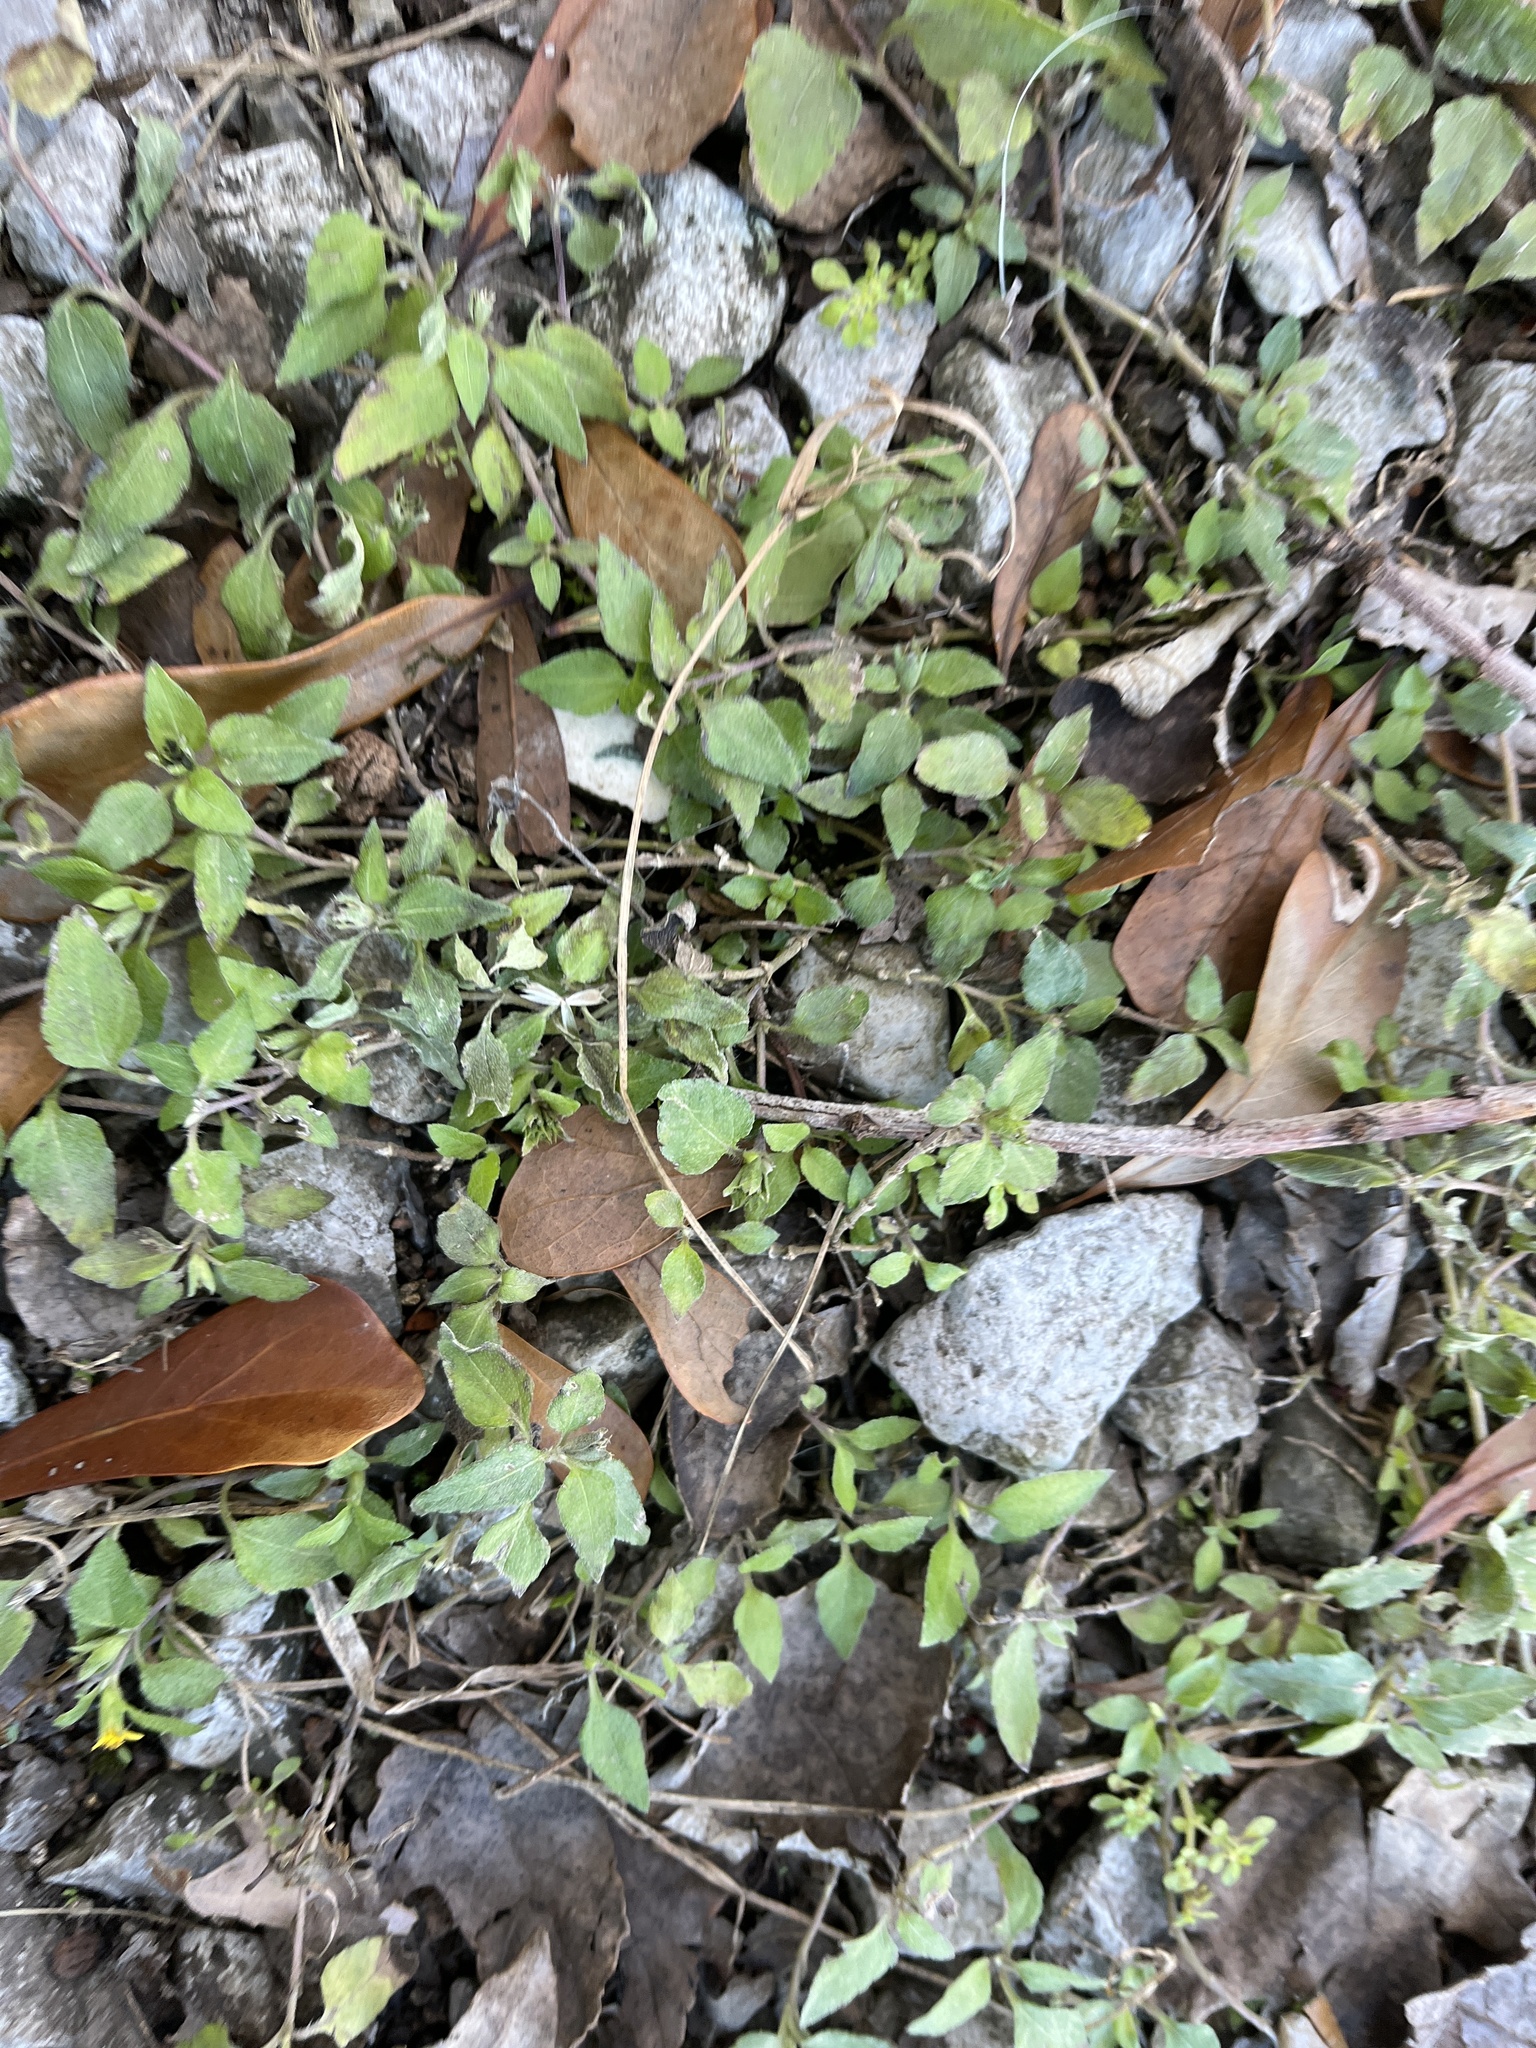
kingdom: Plantae
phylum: Tracheophyta
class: Magnoliopsida
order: Asterales
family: Asteraceae
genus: Calyptocarpus
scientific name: Calyptocarpus vialis
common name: Straggler daisy
